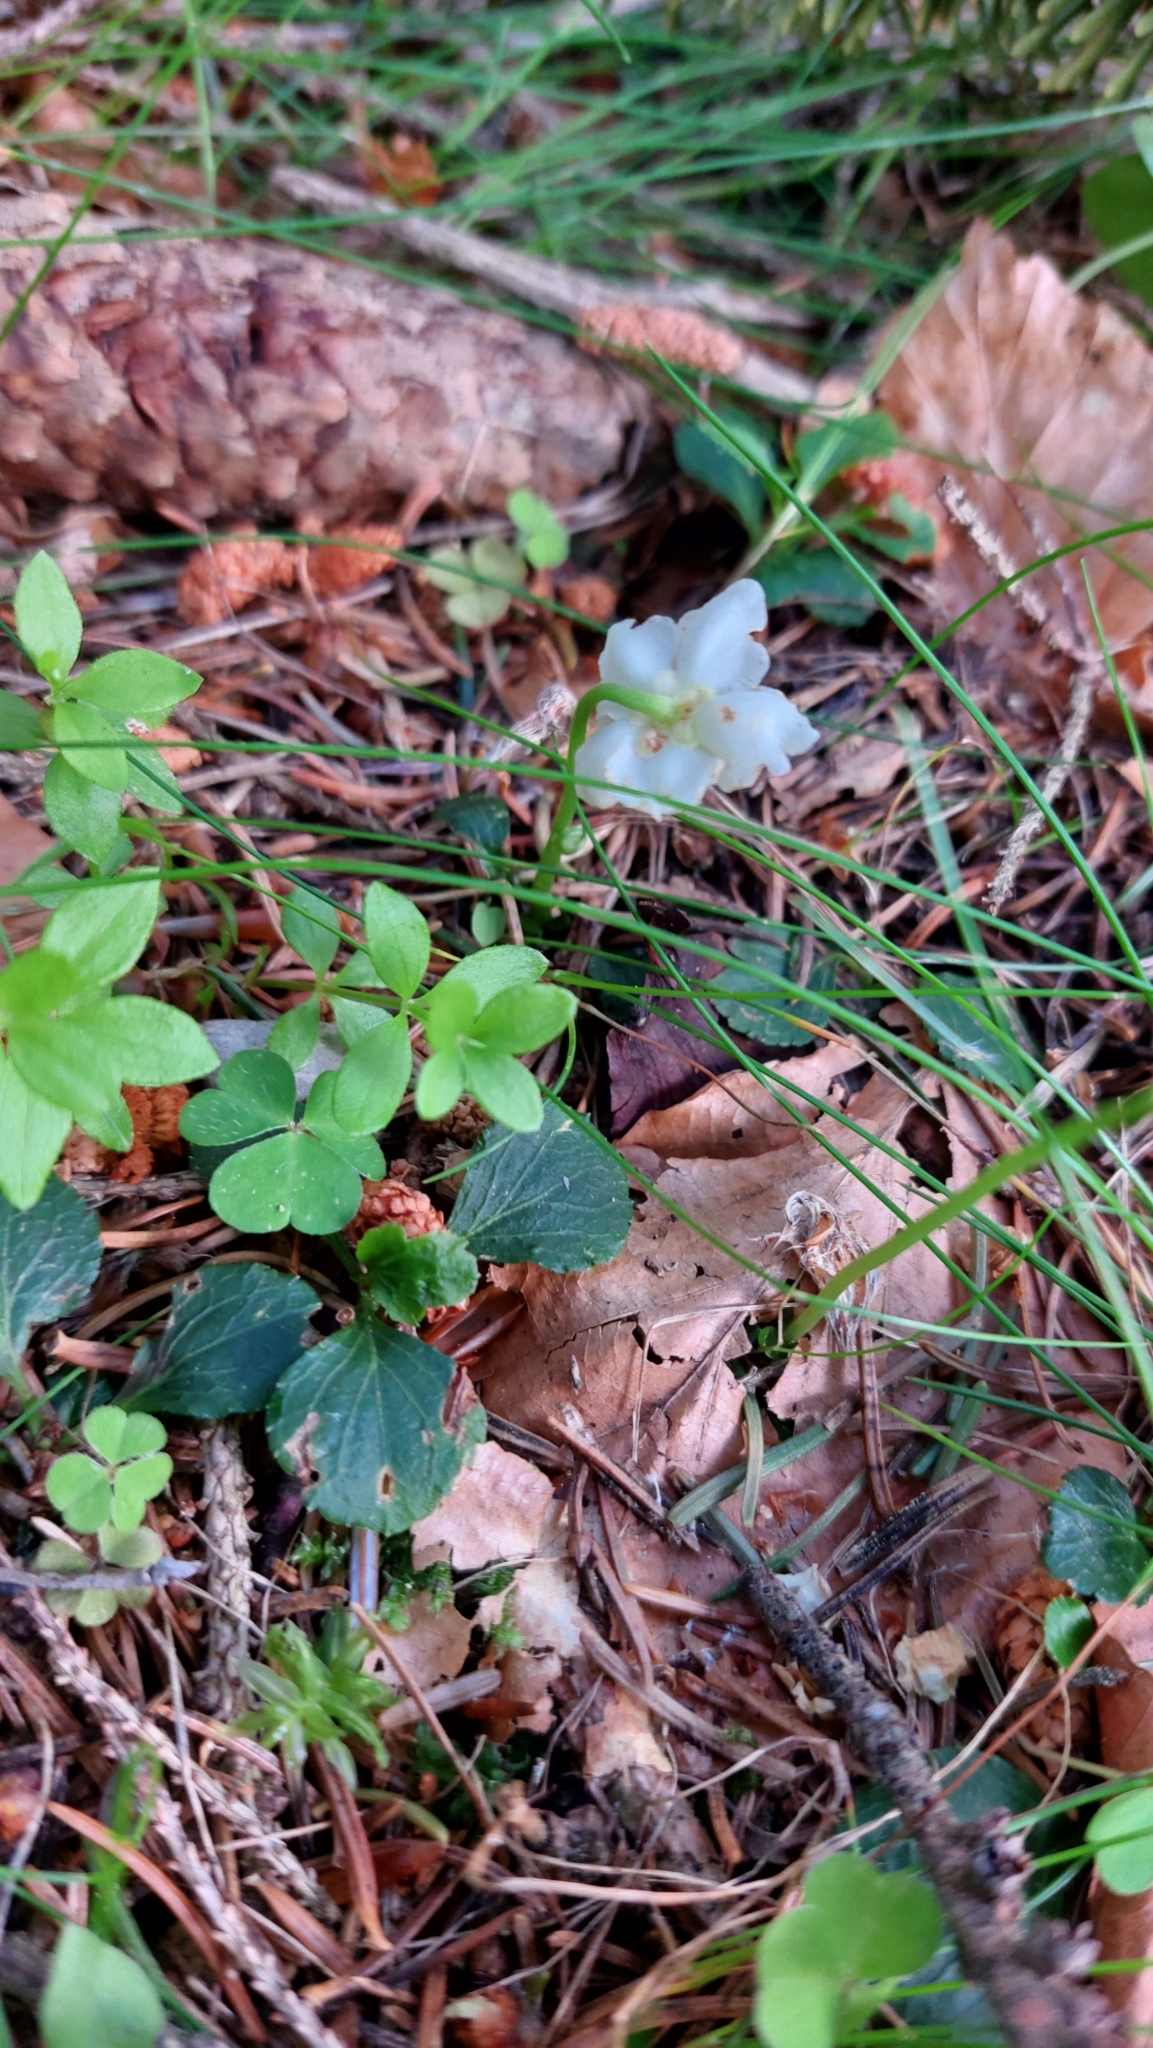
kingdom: Plantae
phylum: Tracheophyta
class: Magnoliopsida
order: Ericales
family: Ericaceae
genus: Moneses
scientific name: Moneses uniflora
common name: One-flowered wintergreen
